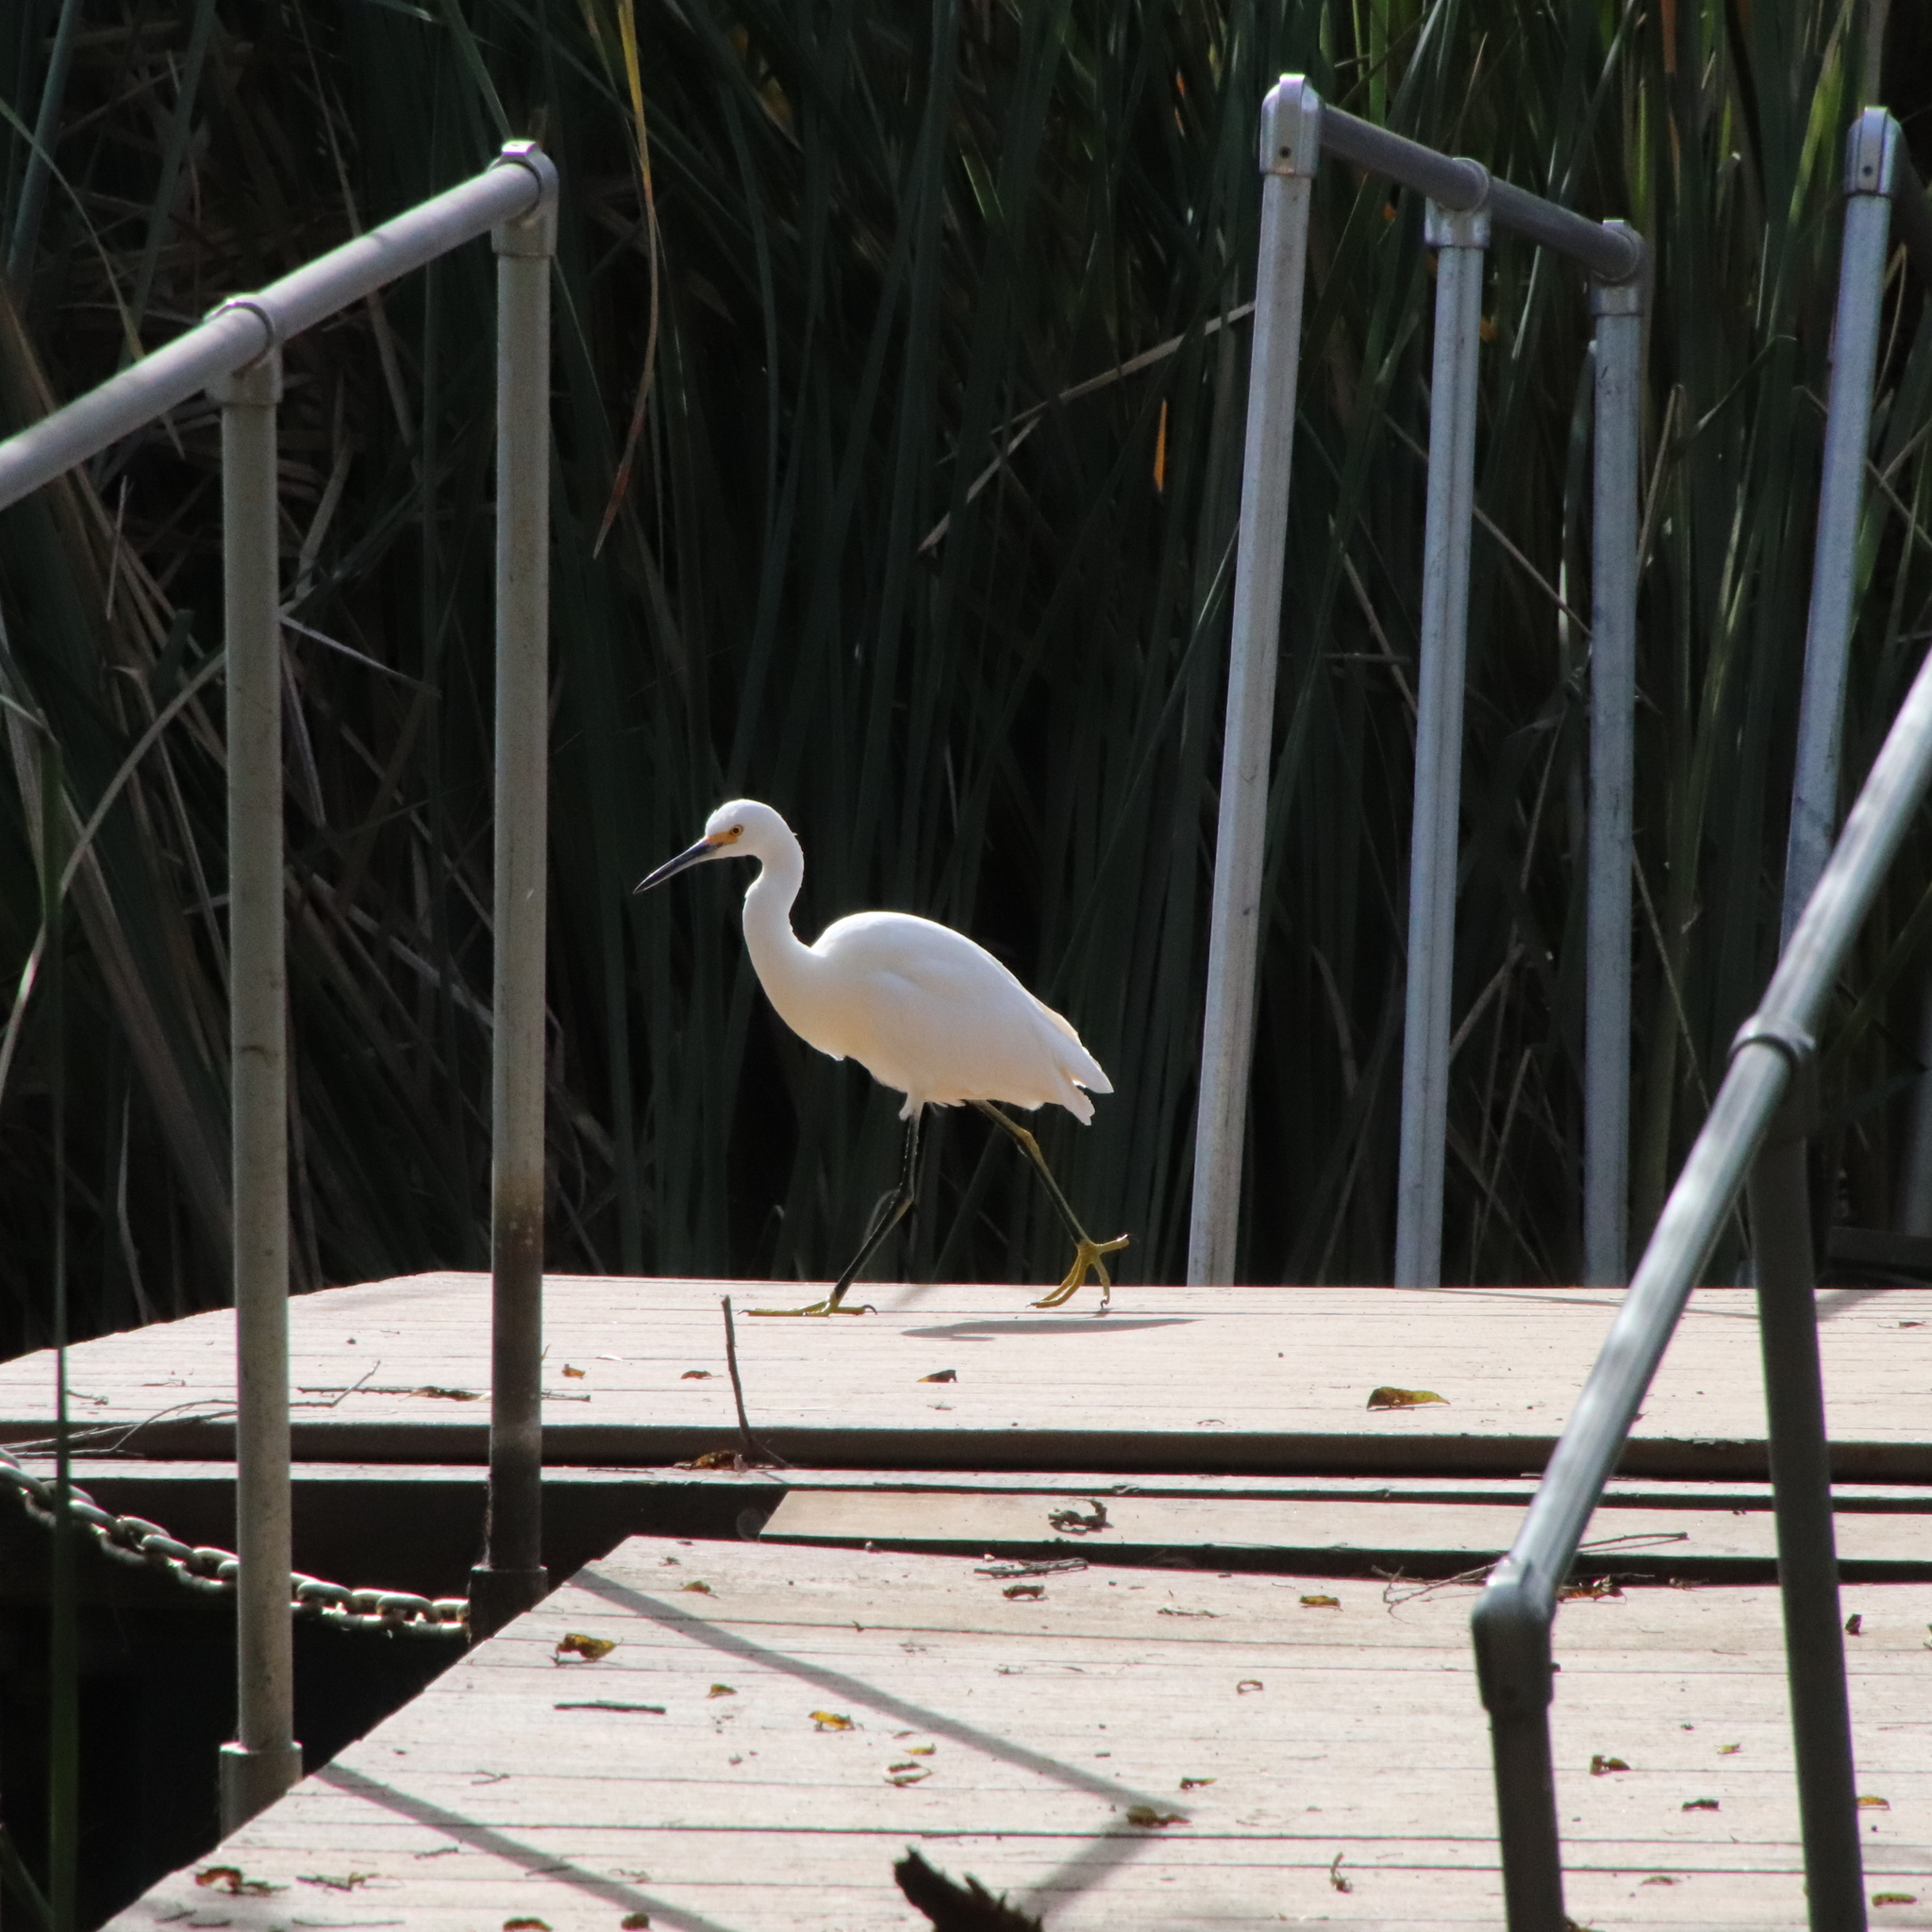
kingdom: Animalia
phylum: Chordata
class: Aves
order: Pelecaniformes
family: Ardeidae
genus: Egretta
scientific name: Egretta thula
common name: Snowy egret
